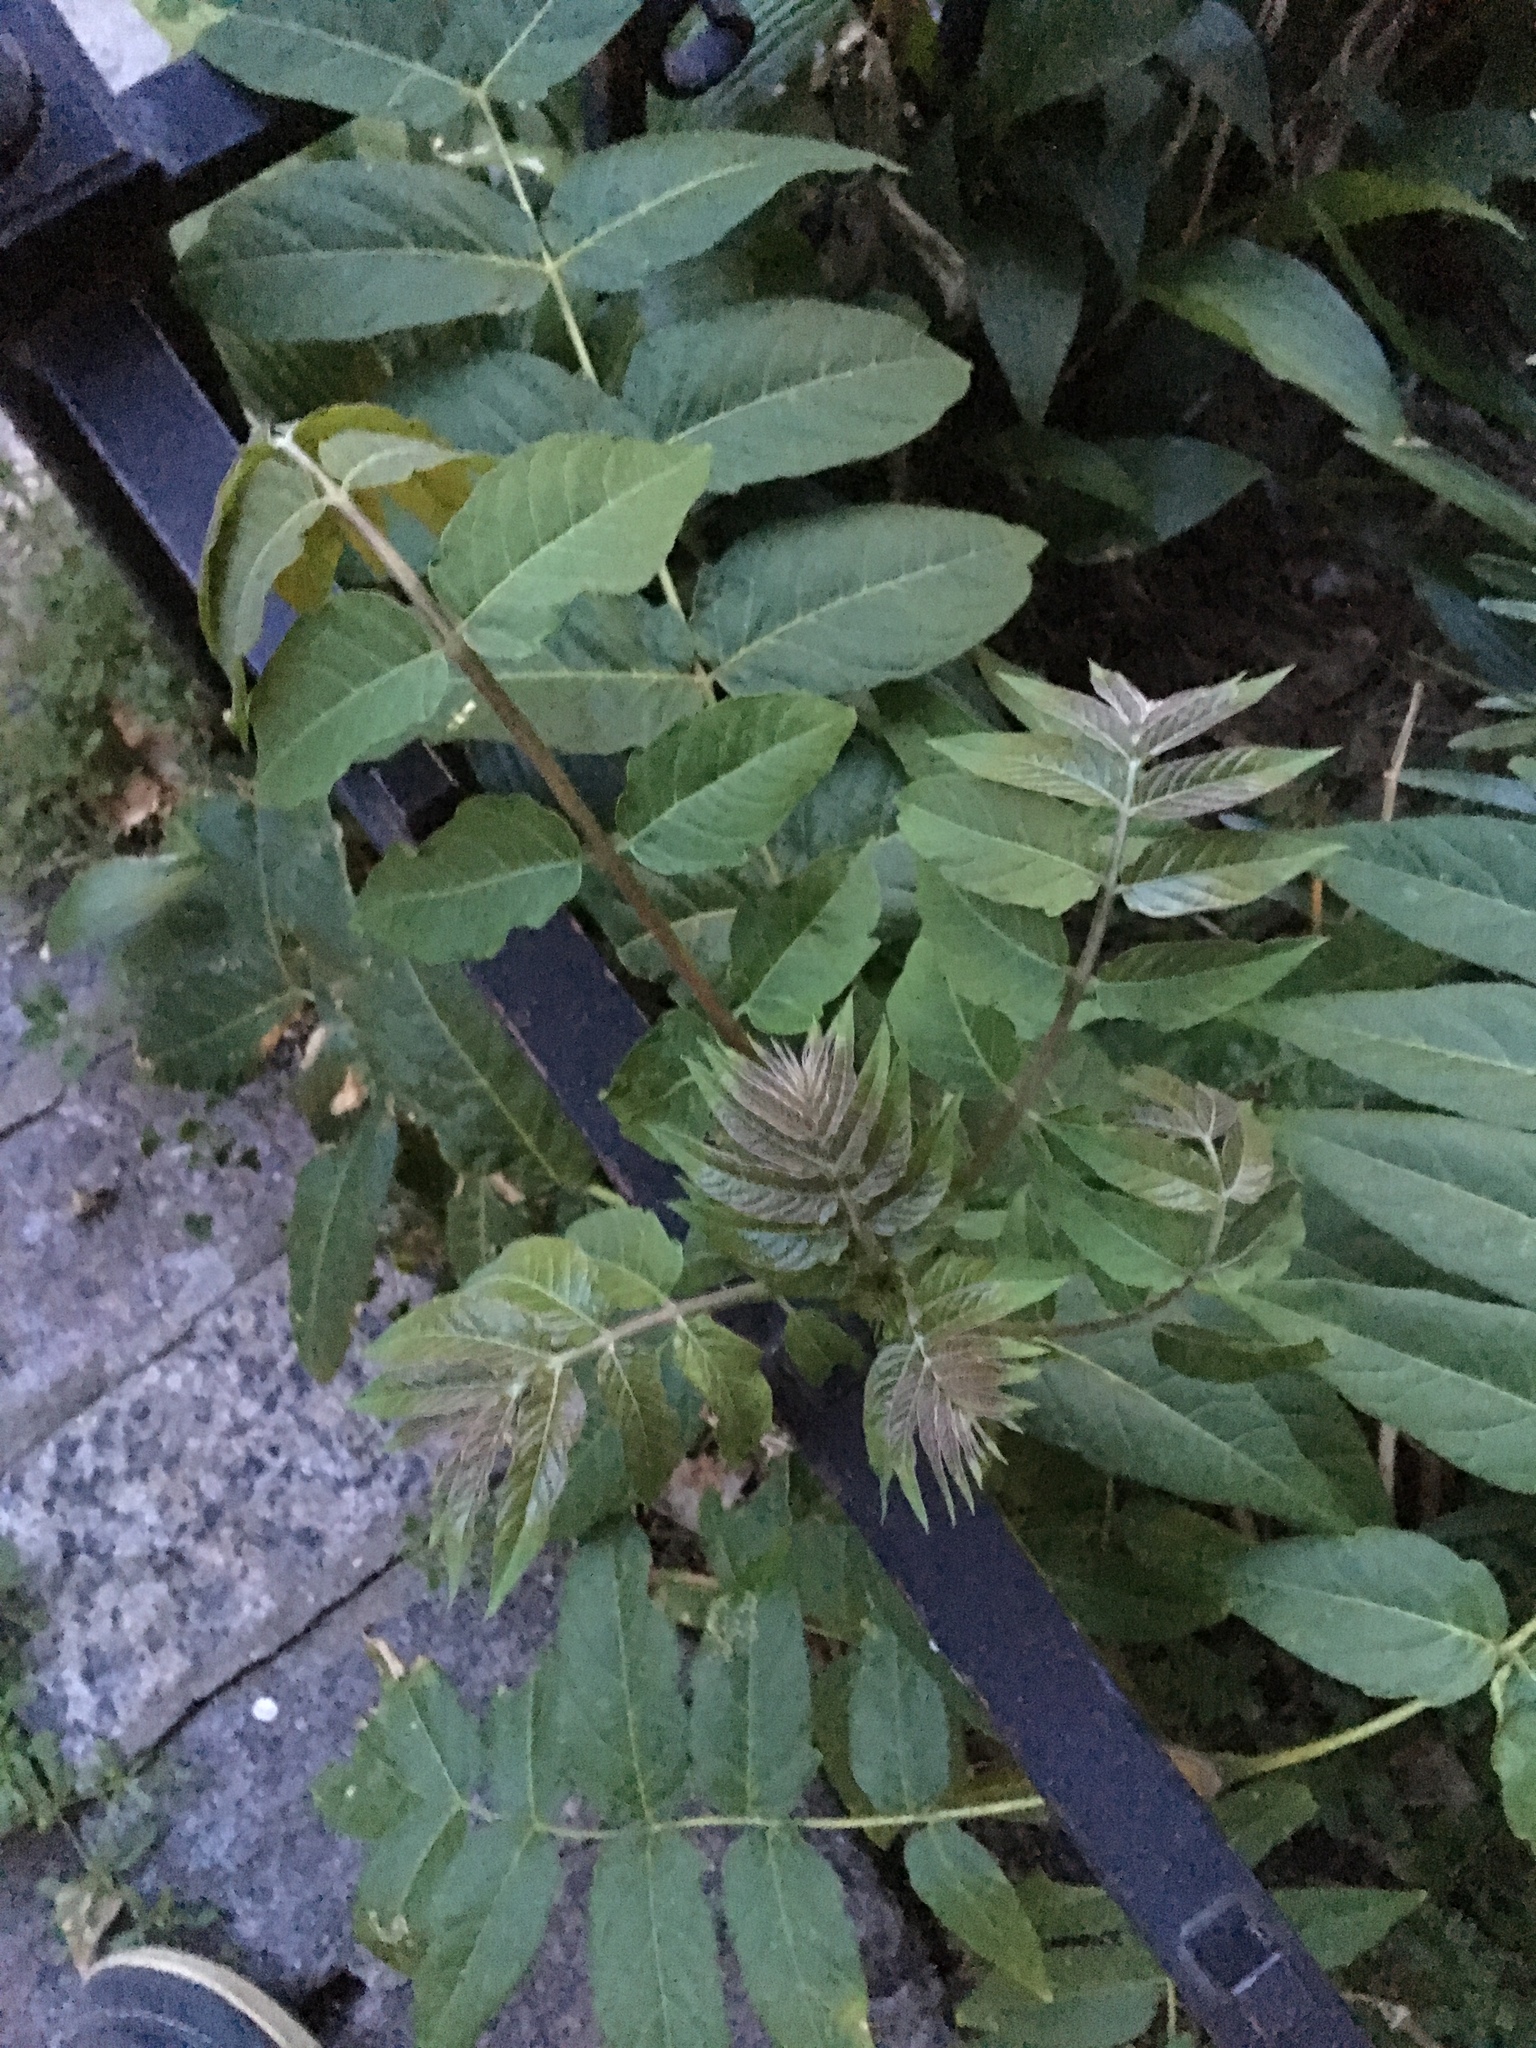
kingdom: Plantae
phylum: Tracheophyta
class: Magnoliopsida
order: Sapindales
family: Simaroubaceae
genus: Ailanthus
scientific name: Ailanthus altissima
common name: Tree-of-heaven
